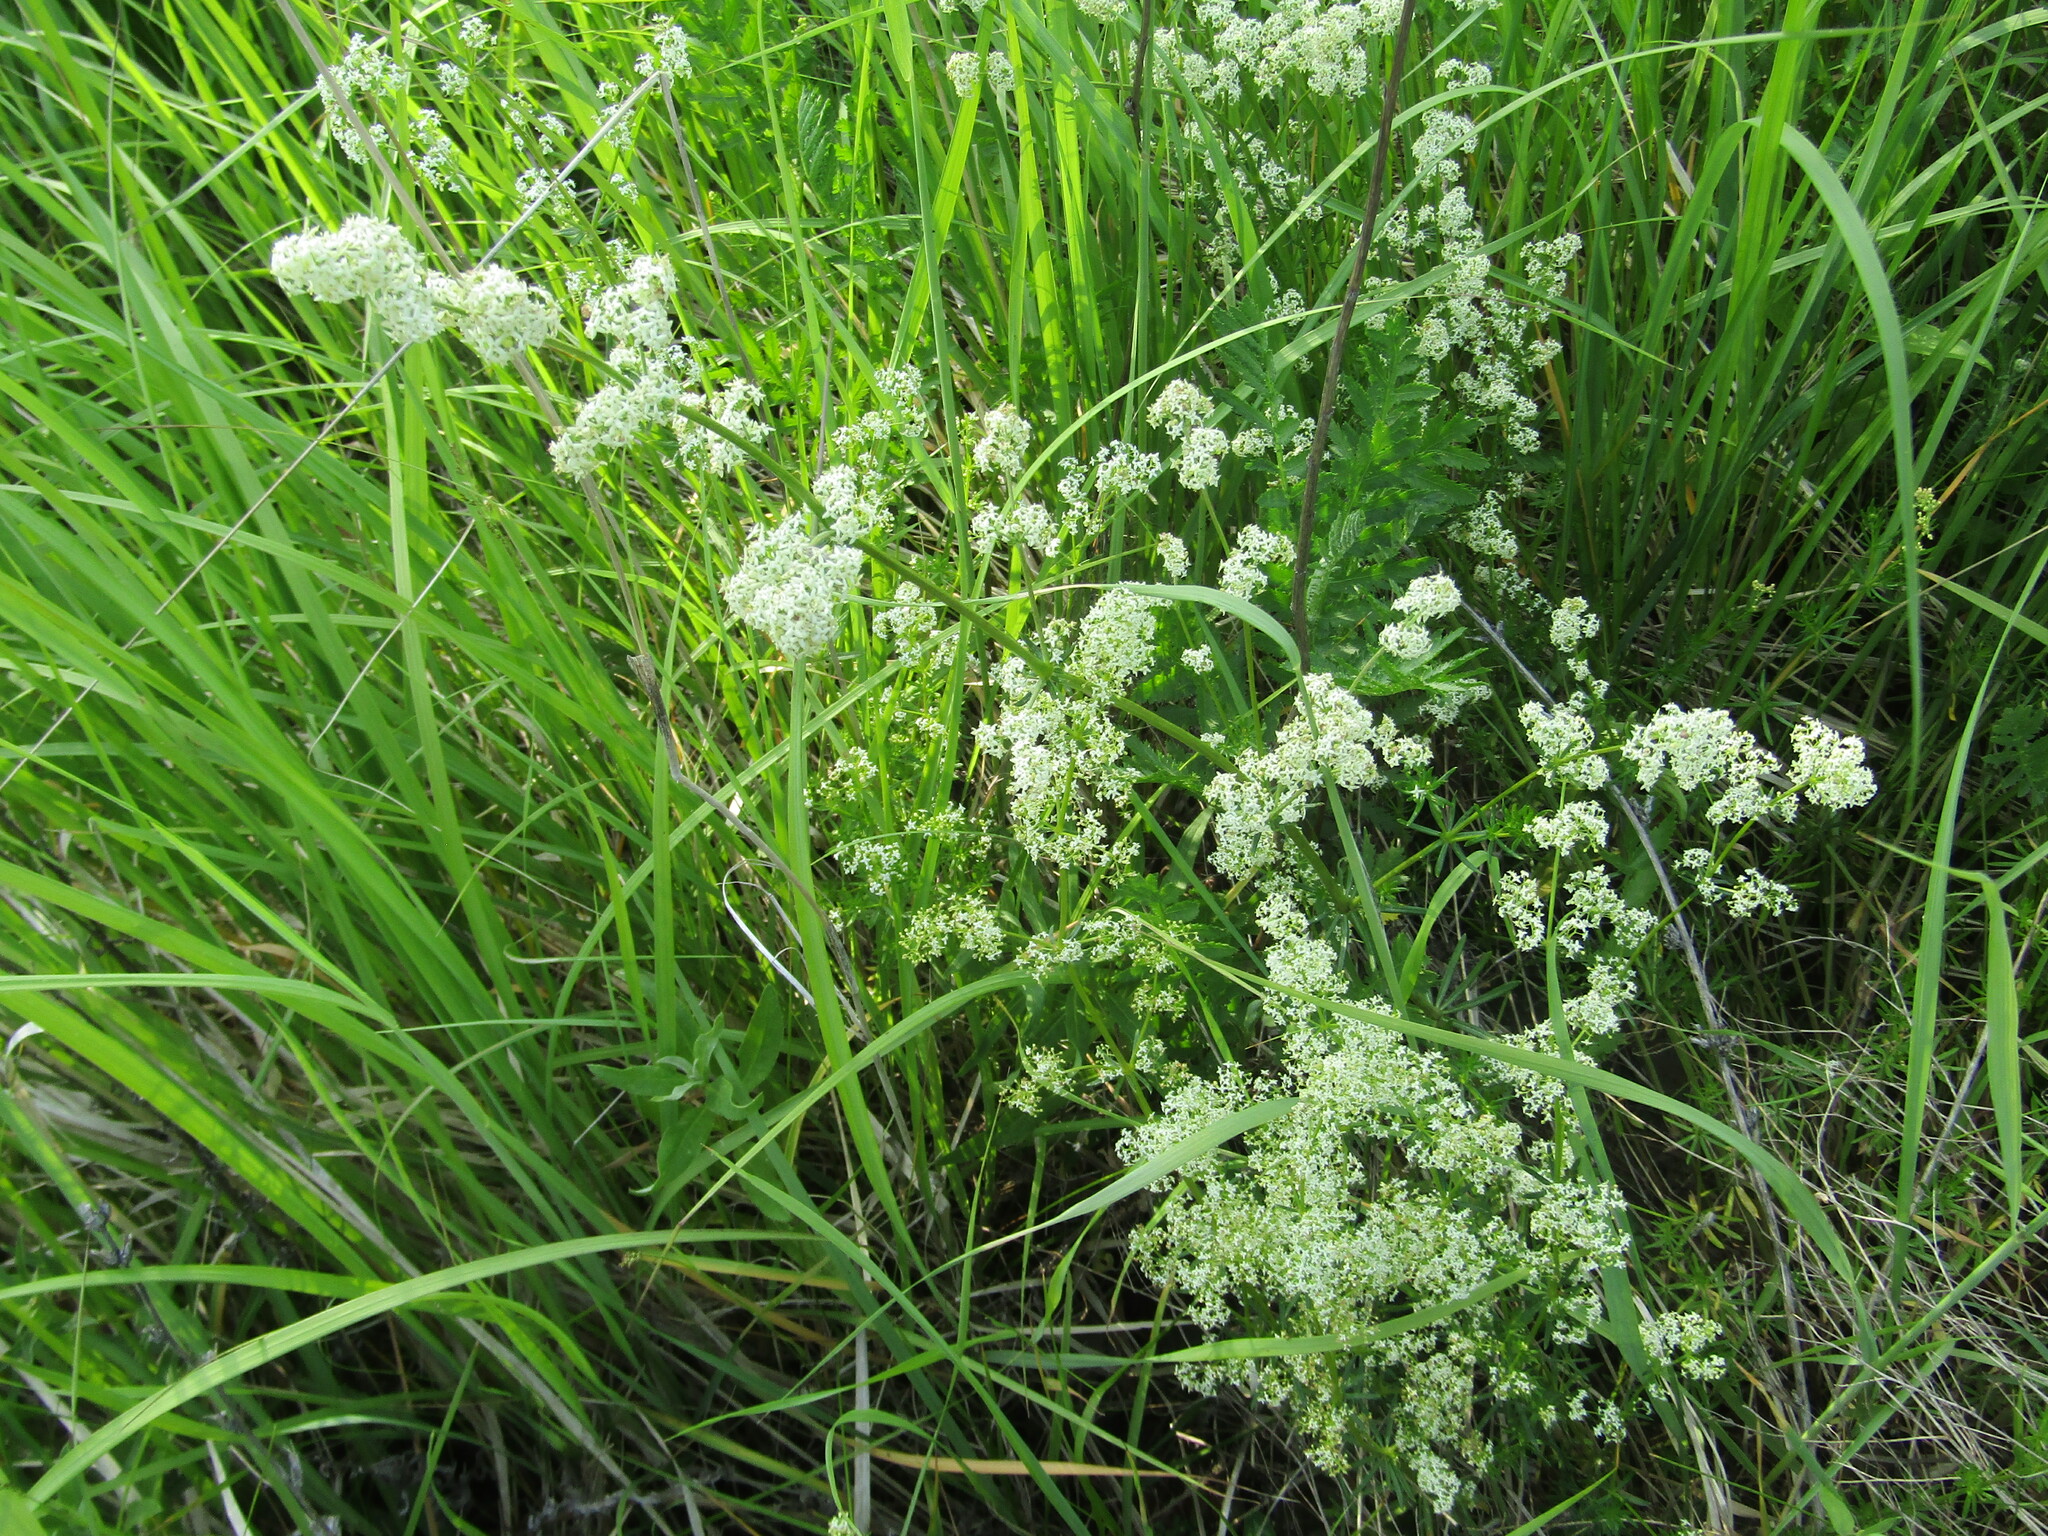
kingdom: Plantae
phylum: Tracheophyta
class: Magnoliopsida
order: Gentianales
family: Rubiaceae
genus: Galium
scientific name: Galium mollugo
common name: Hedge bedstraw
